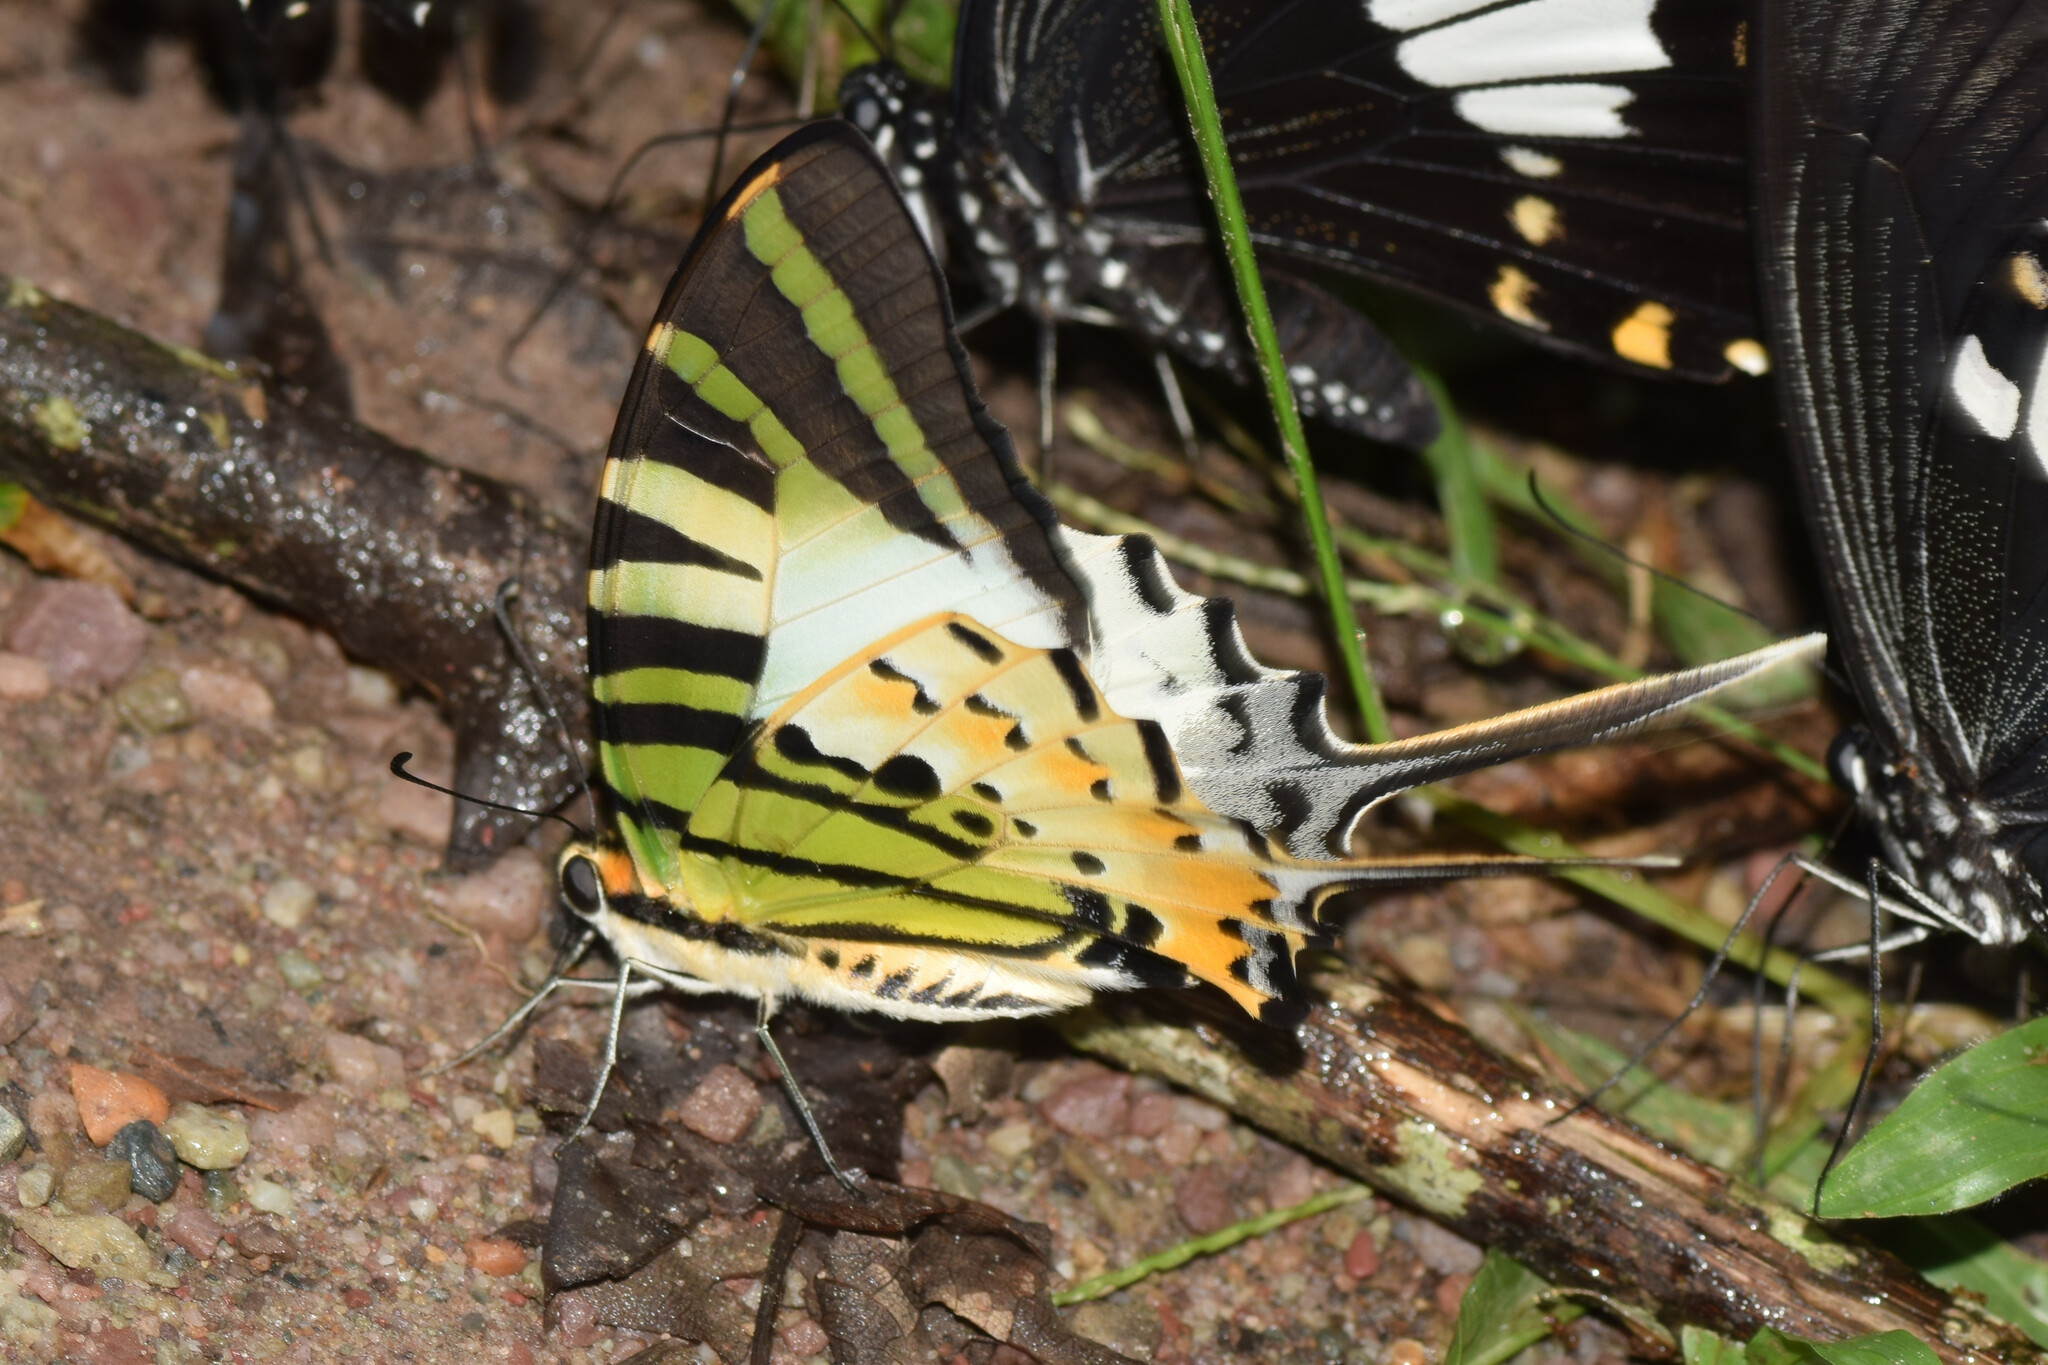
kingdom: Animalia
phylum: Arthropoda
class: Insecta
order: Lepidoptera
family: Papilionidae
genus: Graphium
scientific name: Graphium antiphates
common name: Fivebar swordtail
